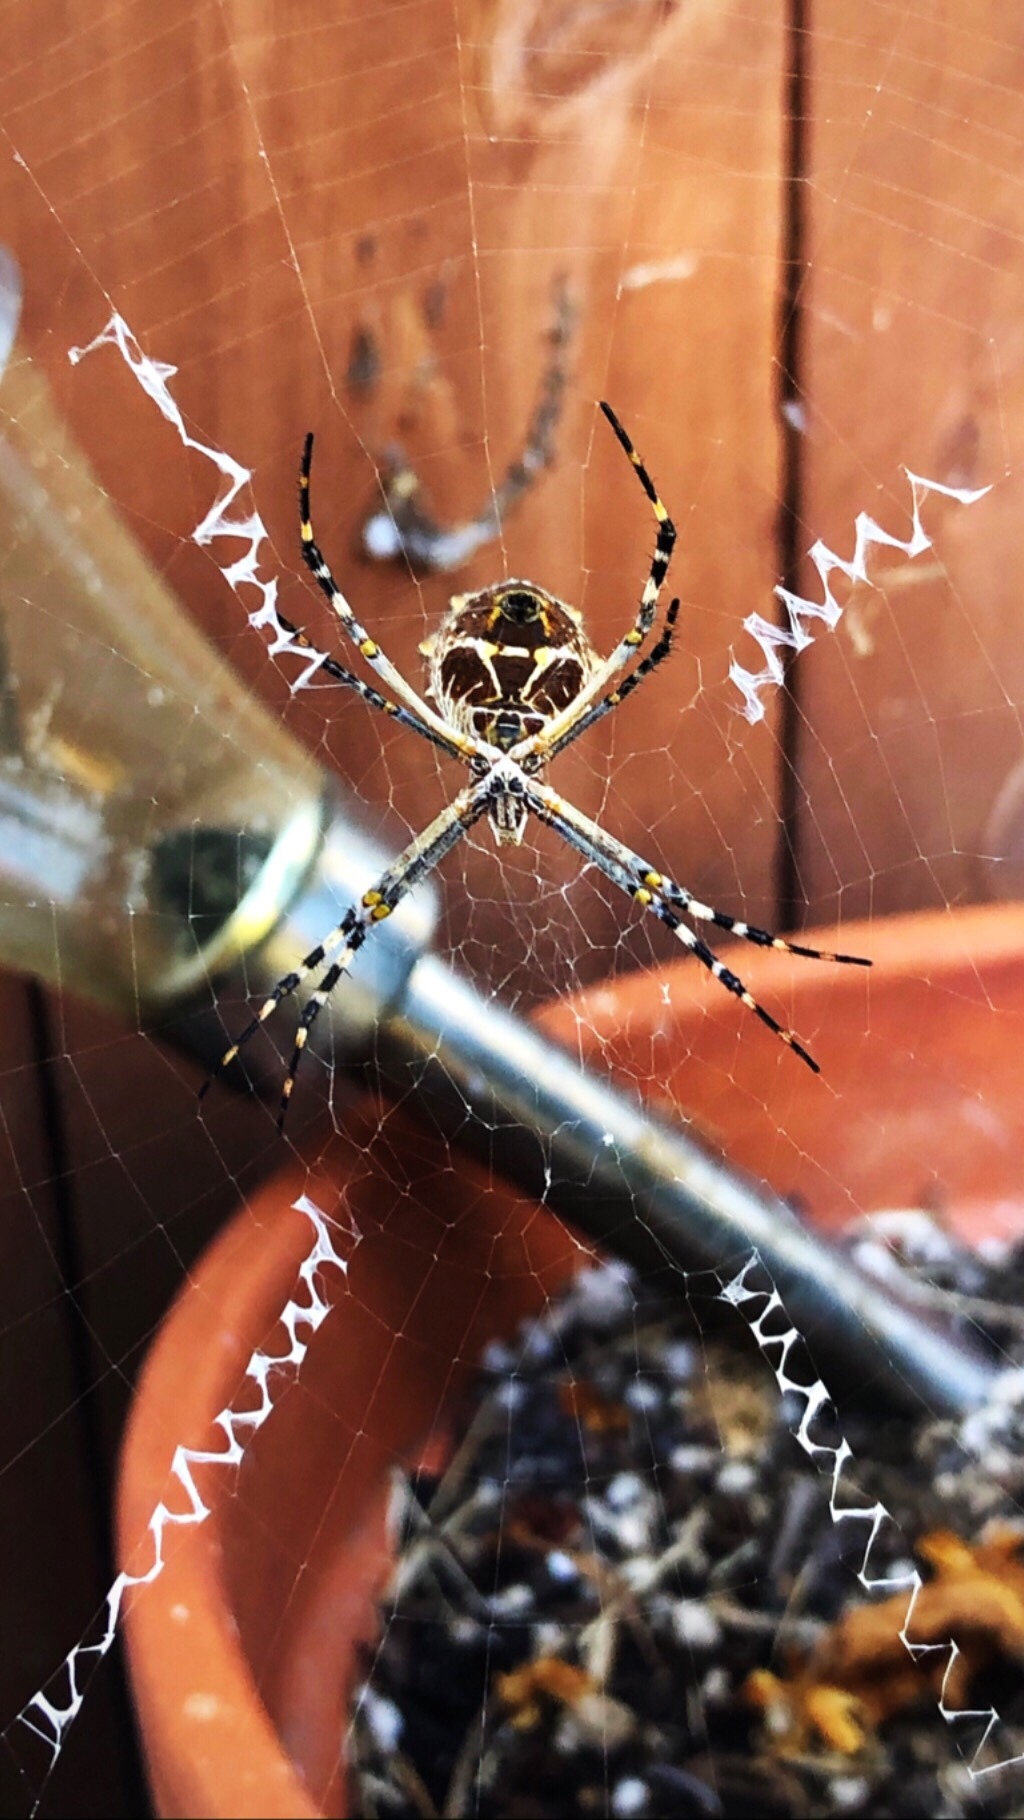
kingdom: Animalia
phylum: Arthropoda
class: Arachnida
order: Araneae
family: Araneidae
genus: Argiope
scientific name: Argiope argentata
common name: Orb weavers
